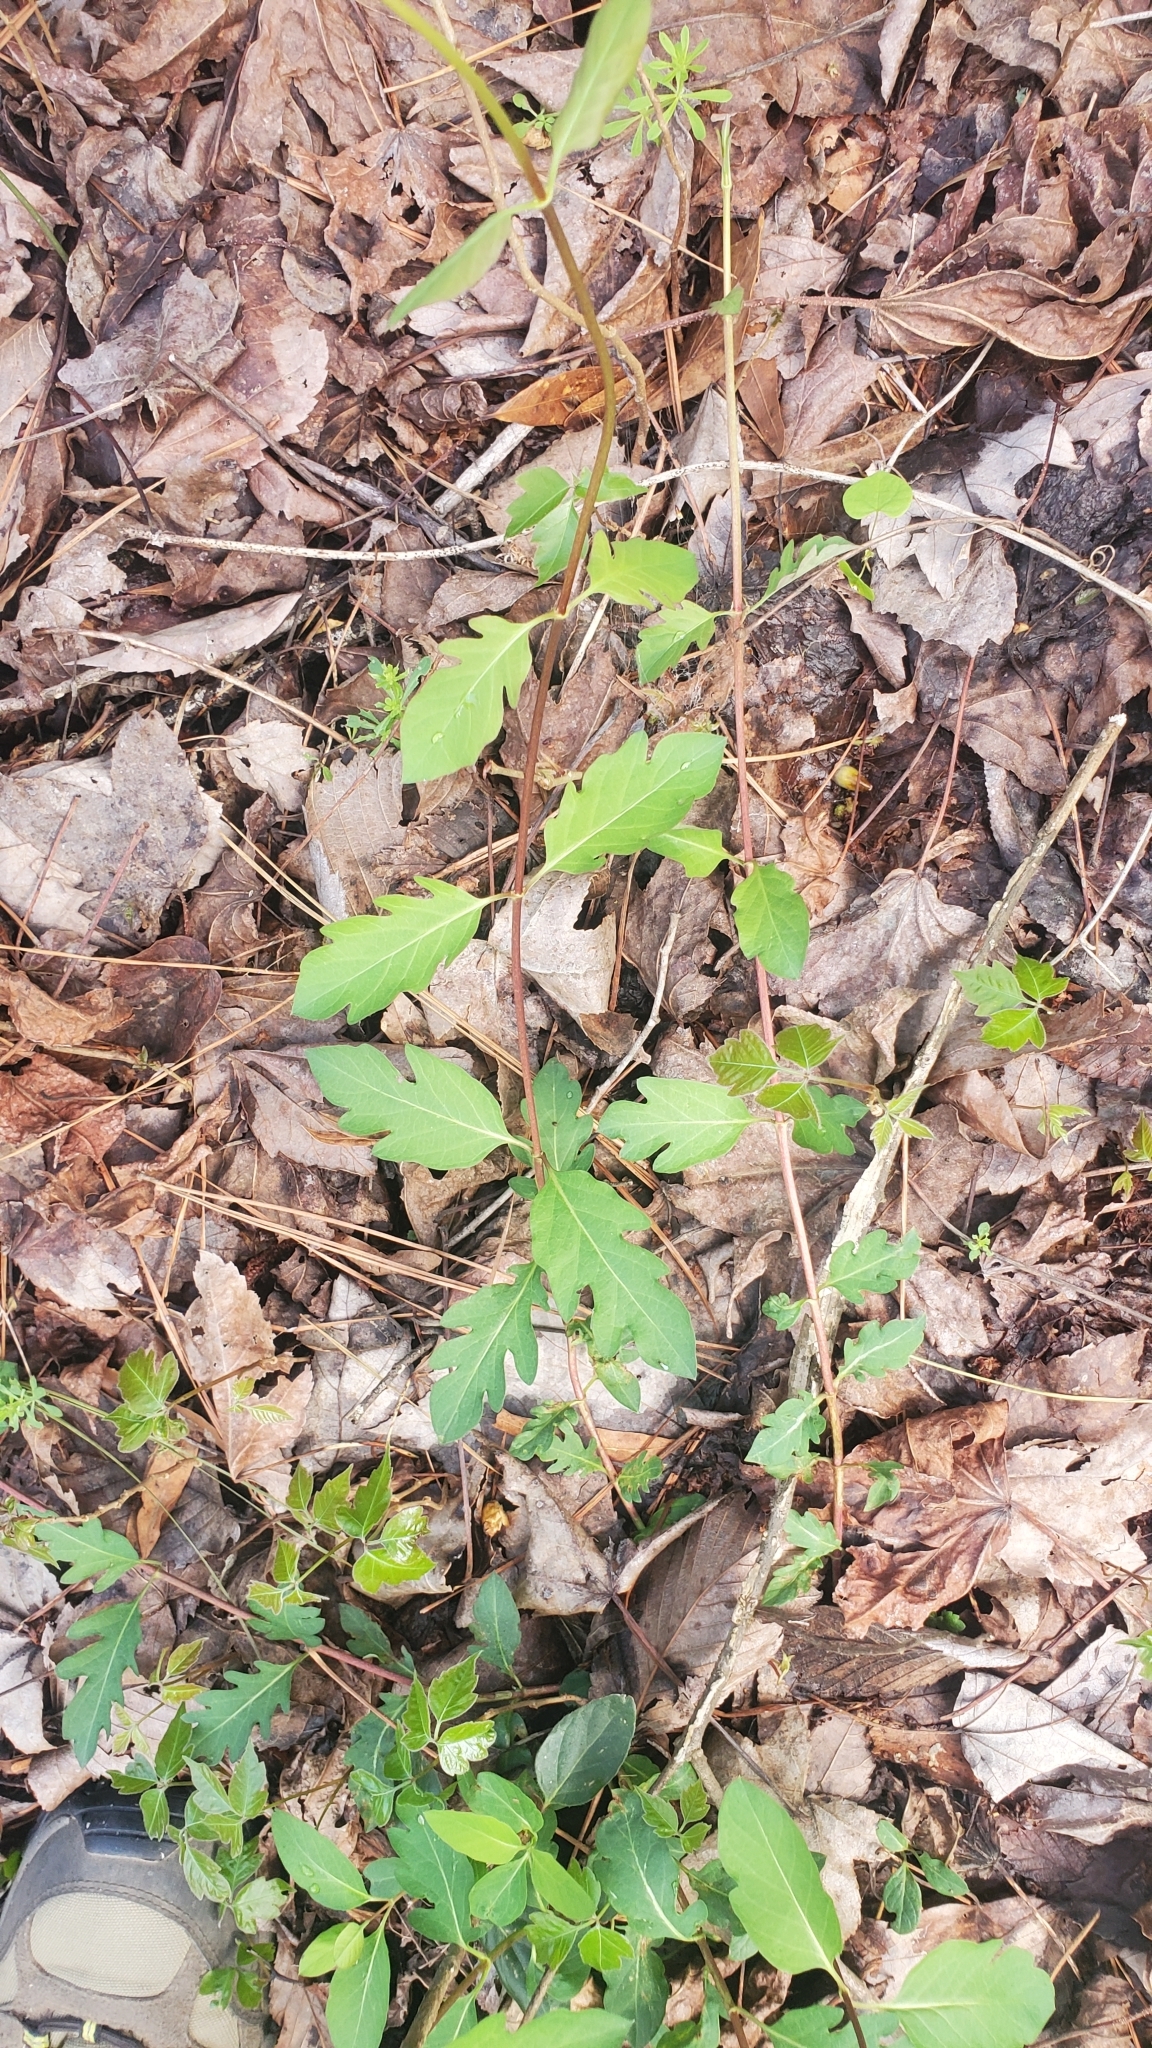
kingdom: Plantae
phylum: Tracheophyta
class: Magnoliopsida
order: Dipsacales
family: Caprifoliaceae
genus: Lonicera
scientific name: Lonicera japonica
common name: Japanese honeysuckle
